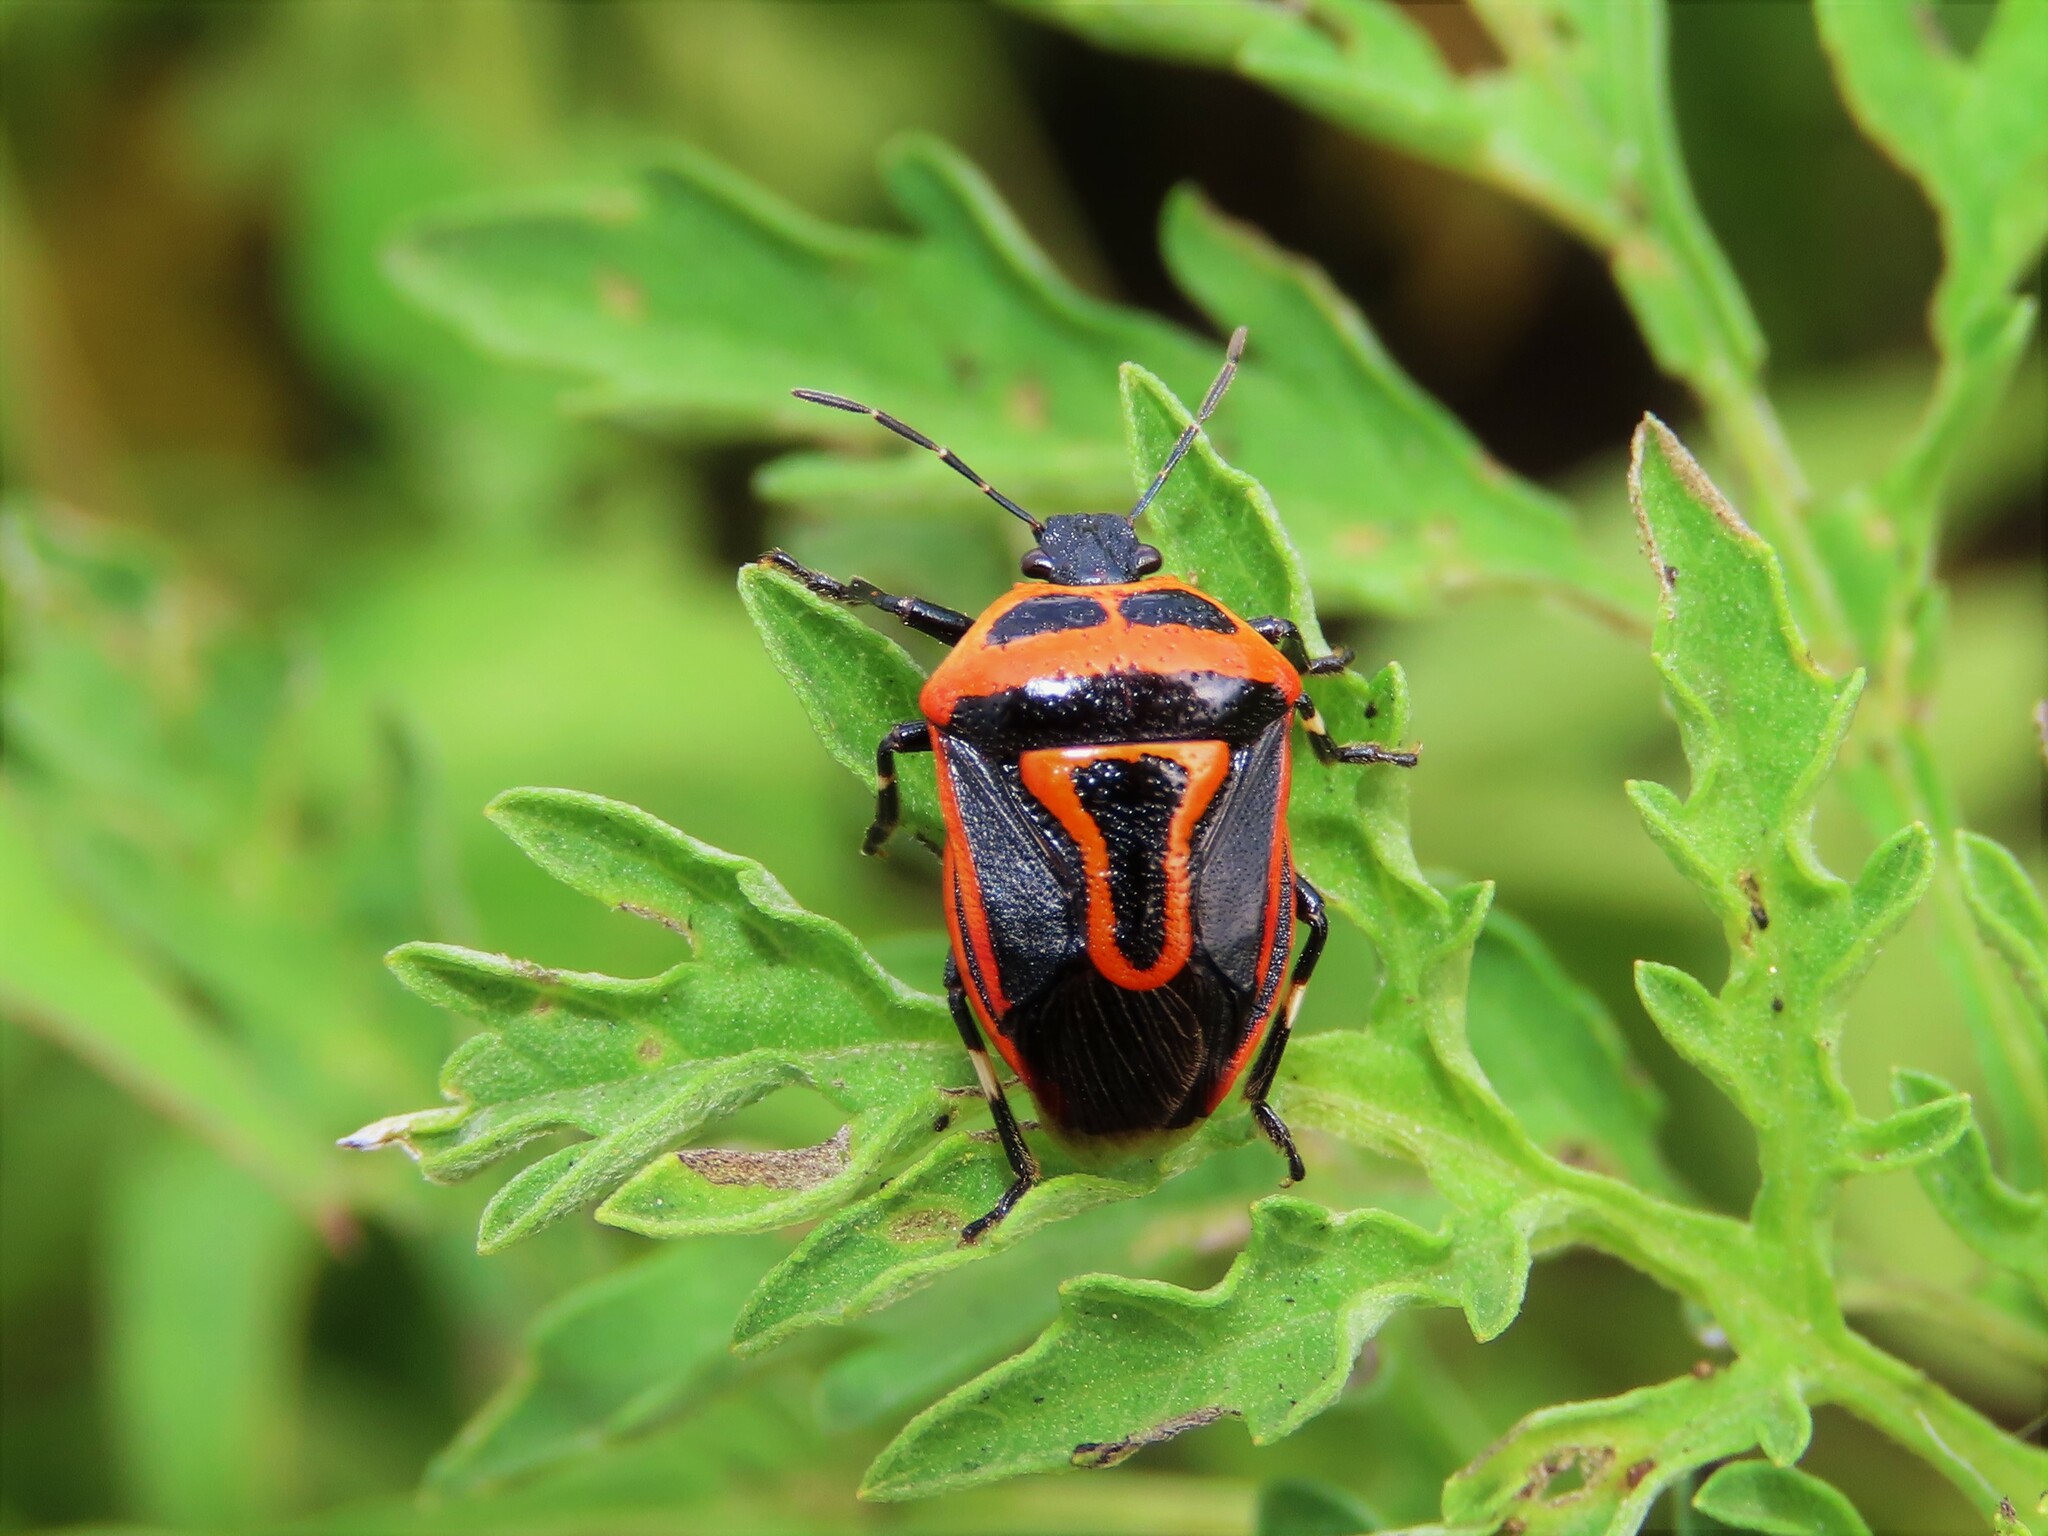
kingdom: Animalia
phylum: Arthropoda
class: Insecta
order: Hemiptera
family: Pentatomidae
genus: Perillus
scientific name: Perillus bioculatus
